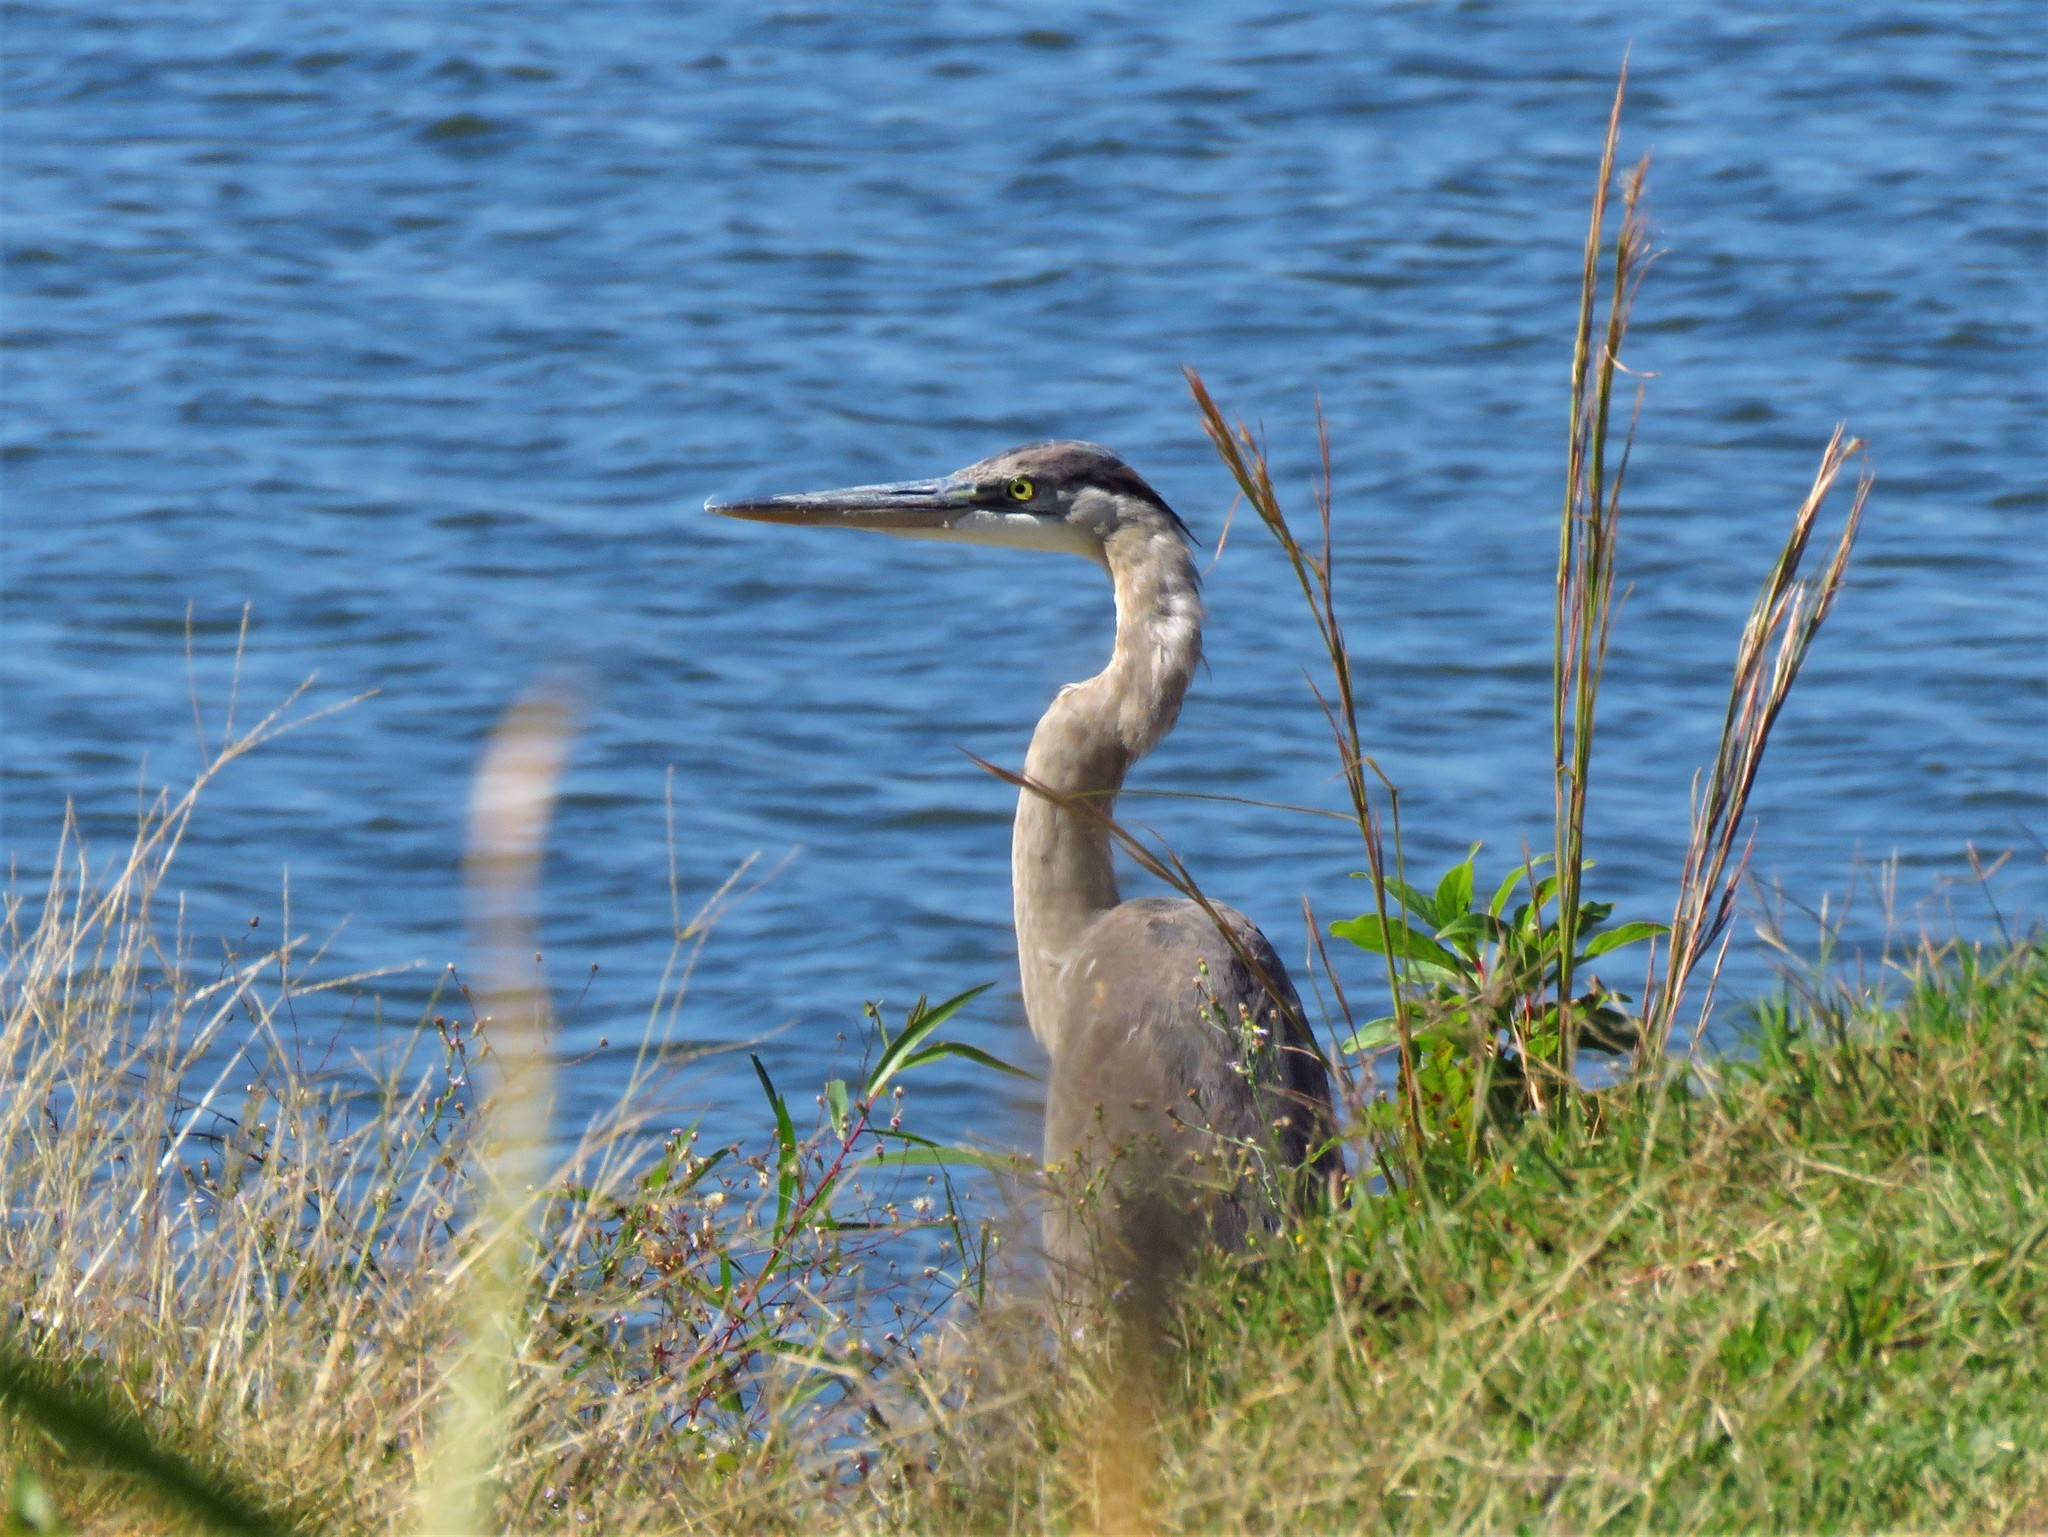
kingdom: Animalia
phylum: Chordata
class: Aves
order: Pelecaniformes
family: Ardeidae
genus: Ardea
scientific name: Ardea herodias
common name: Great blue heron
